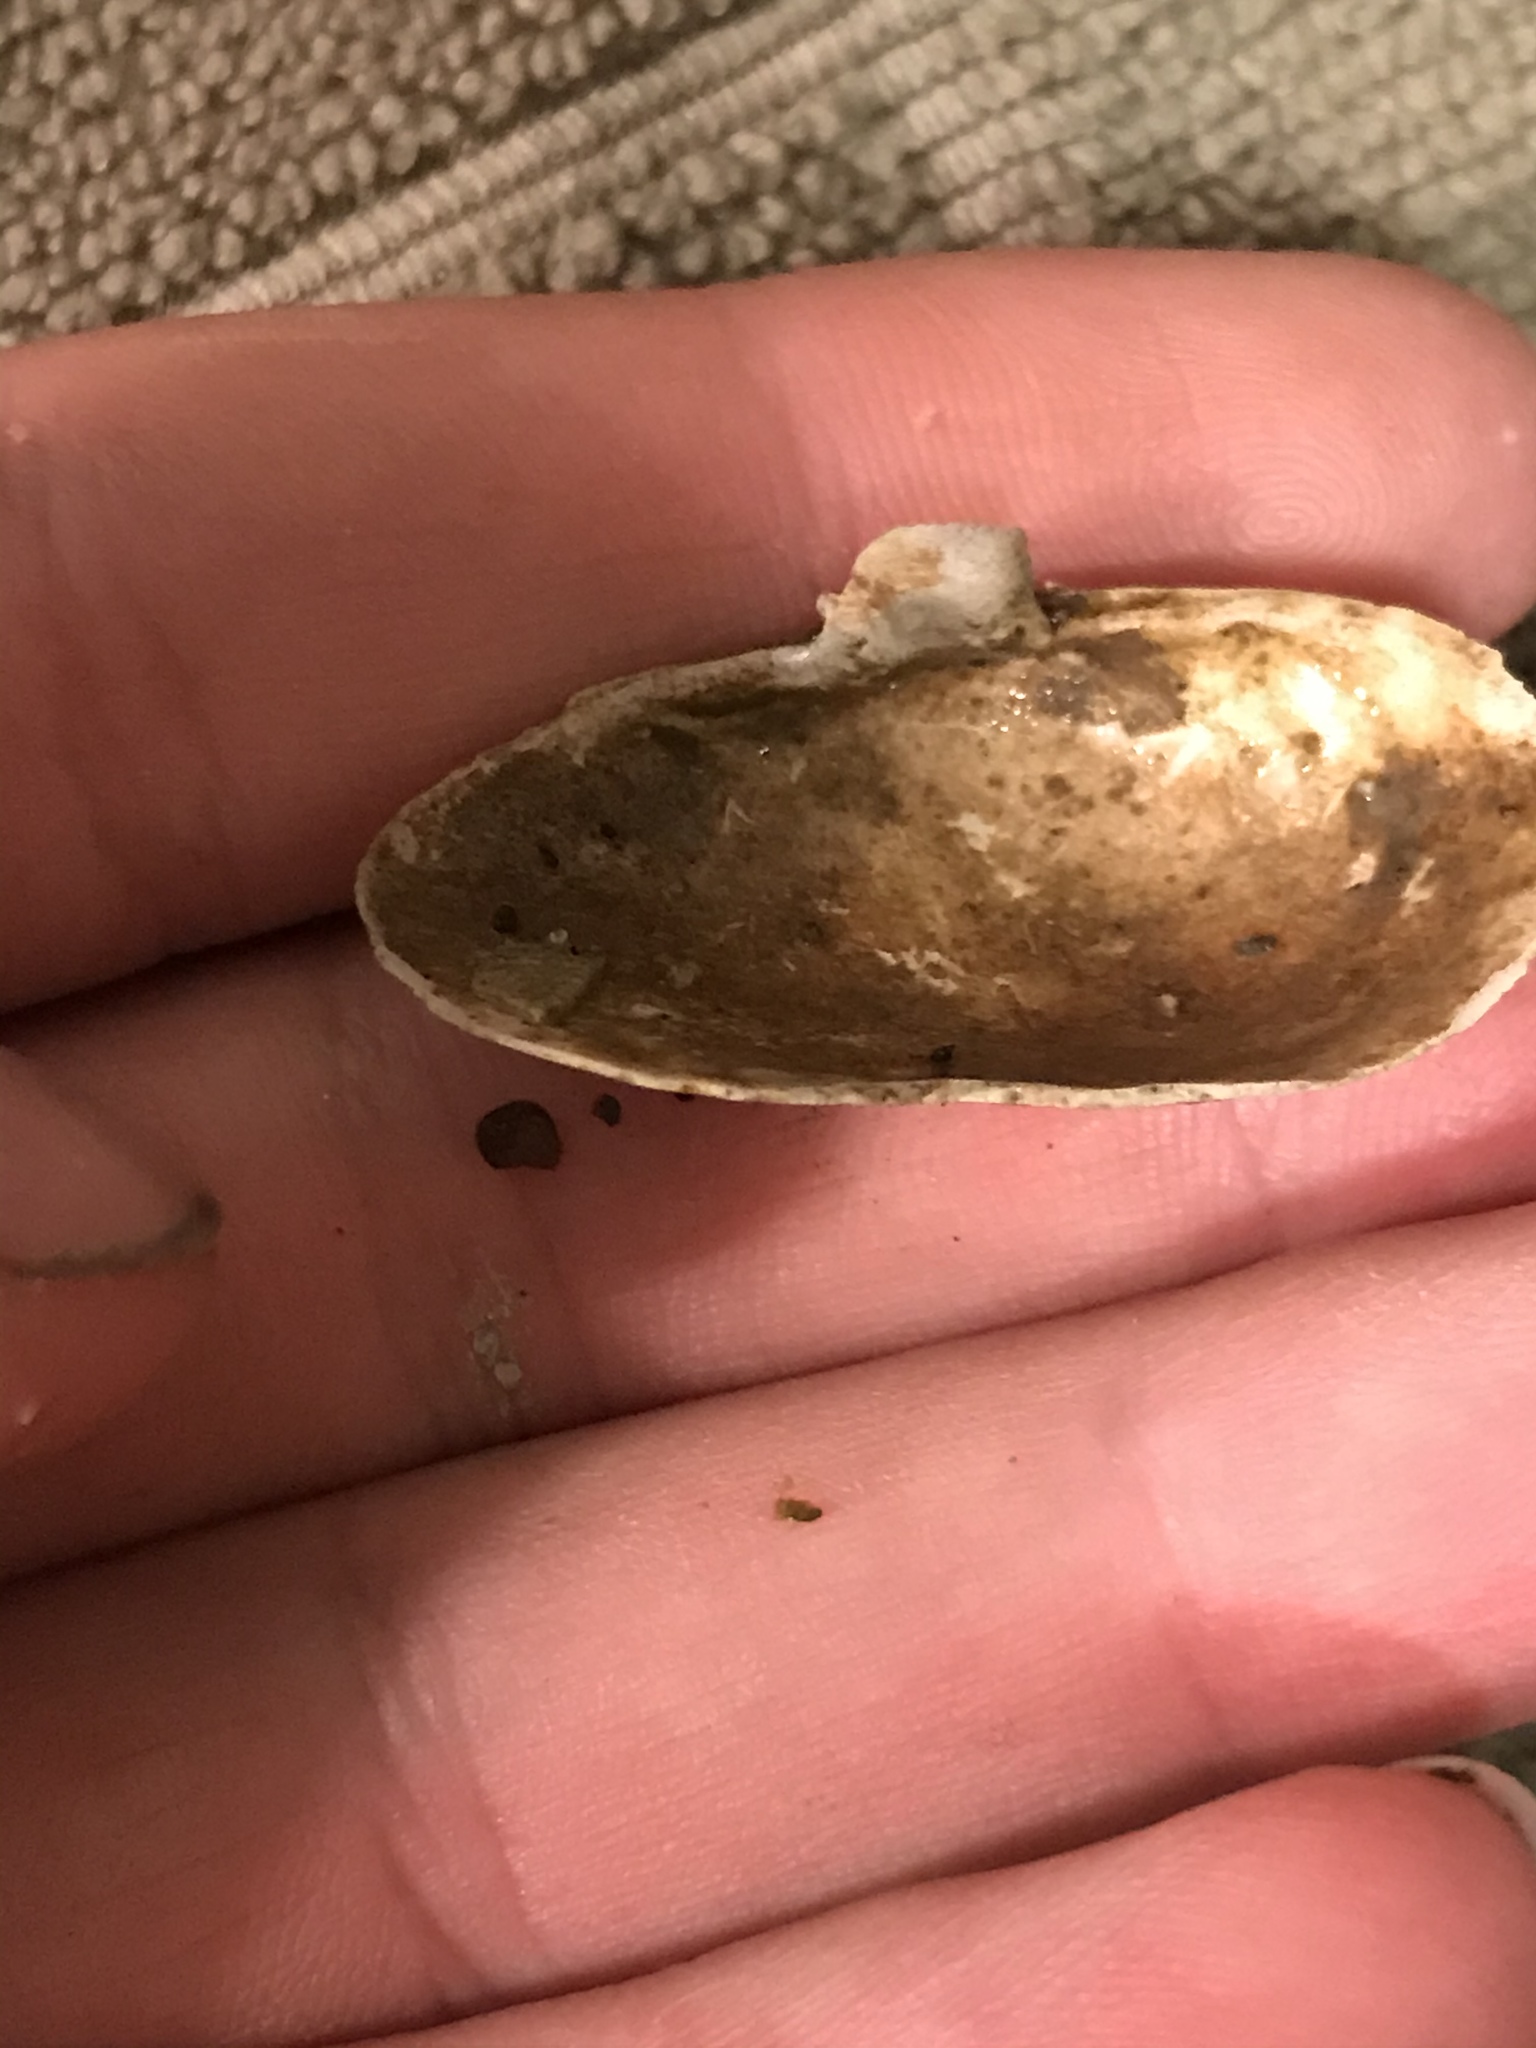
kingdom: Animalia
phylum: Mollusca
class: Bivalvia
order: Myida
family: Myidae
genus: Mya
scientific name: Mya arenaria
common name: Soft-shelled clam
